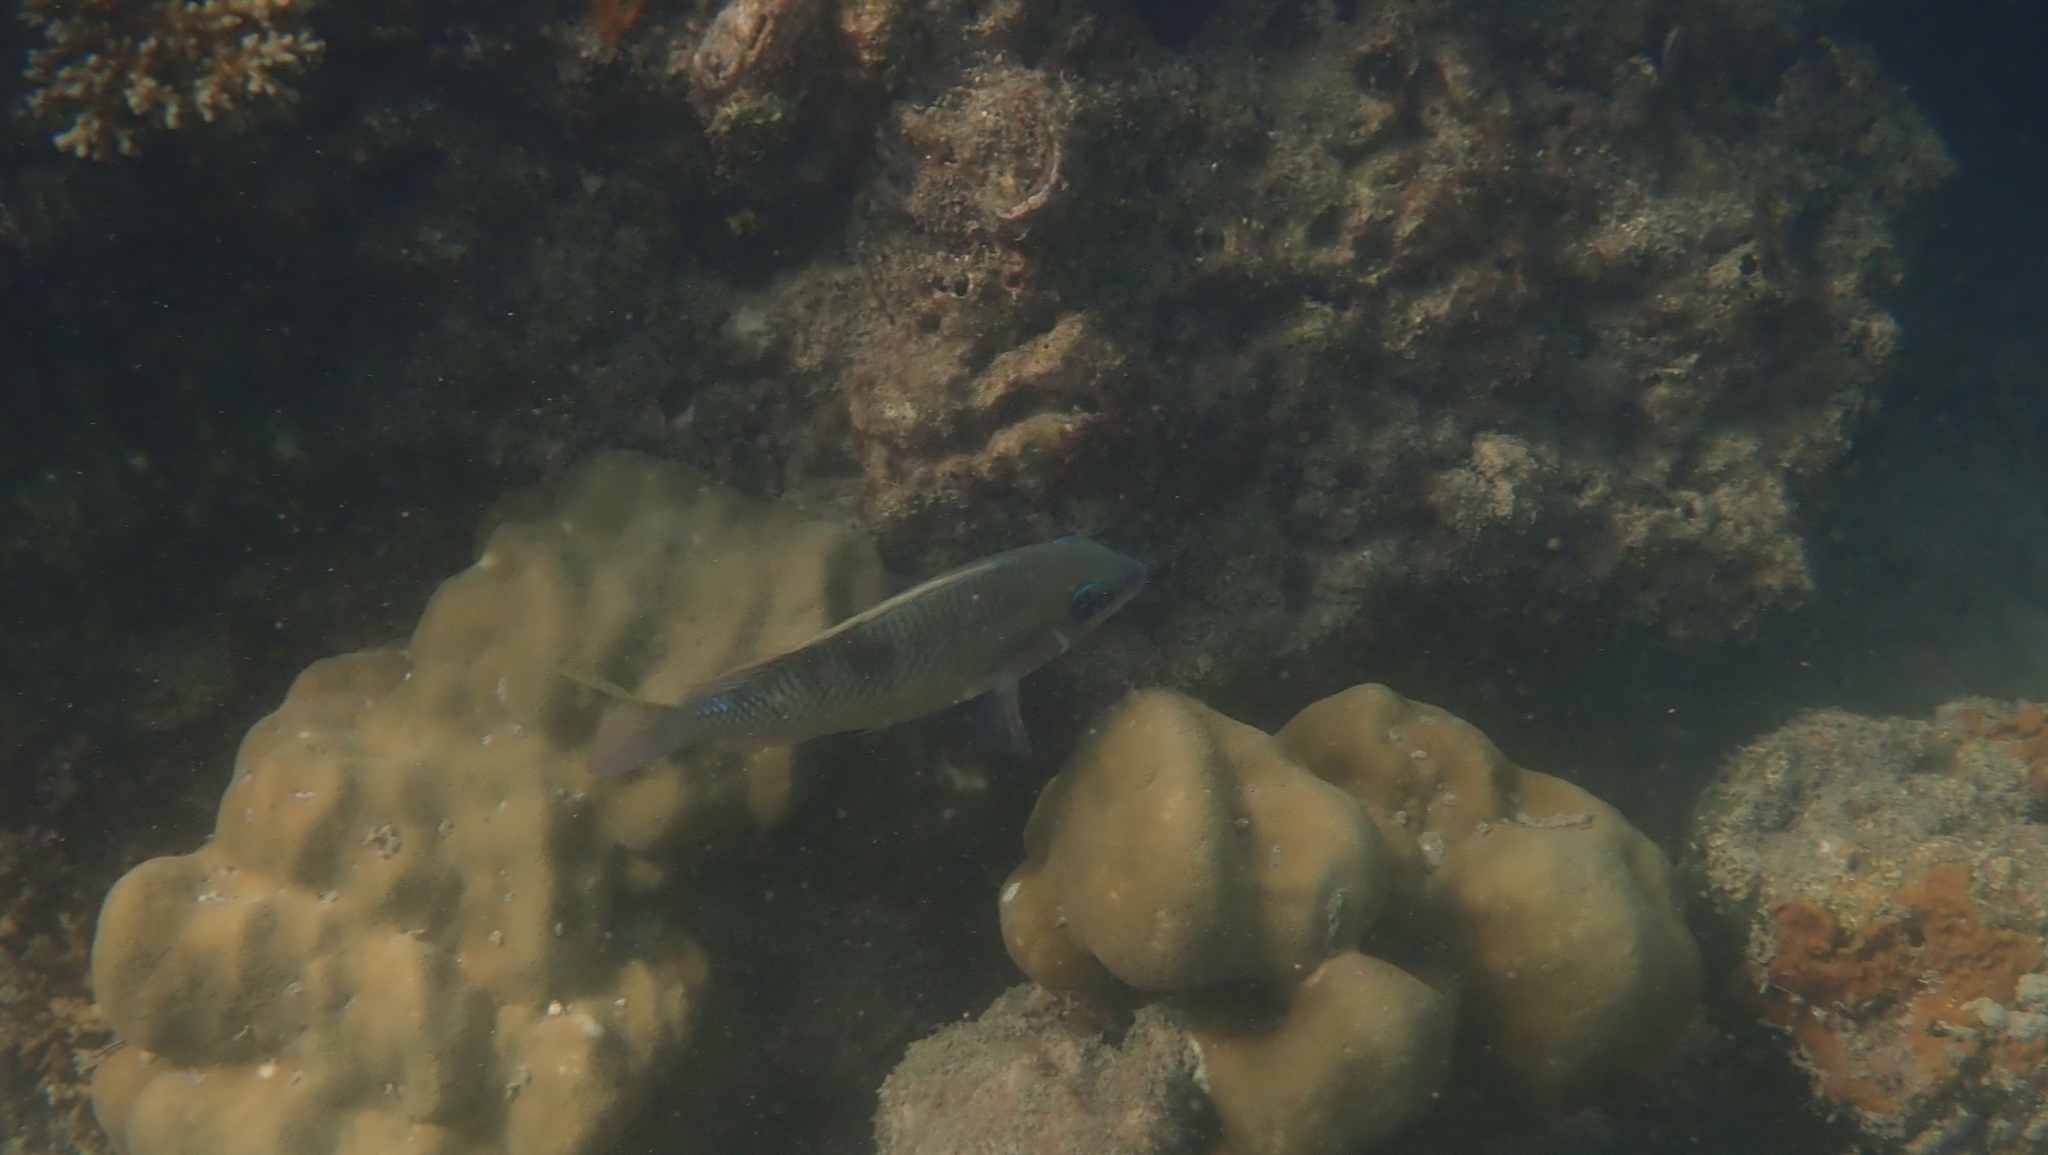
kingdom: Animalia
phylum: Chordata
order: Perciformes
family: Nemipteridae
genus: Scolopsis
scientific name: Scolopsis margaritifera
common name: Pearly monocle bream
